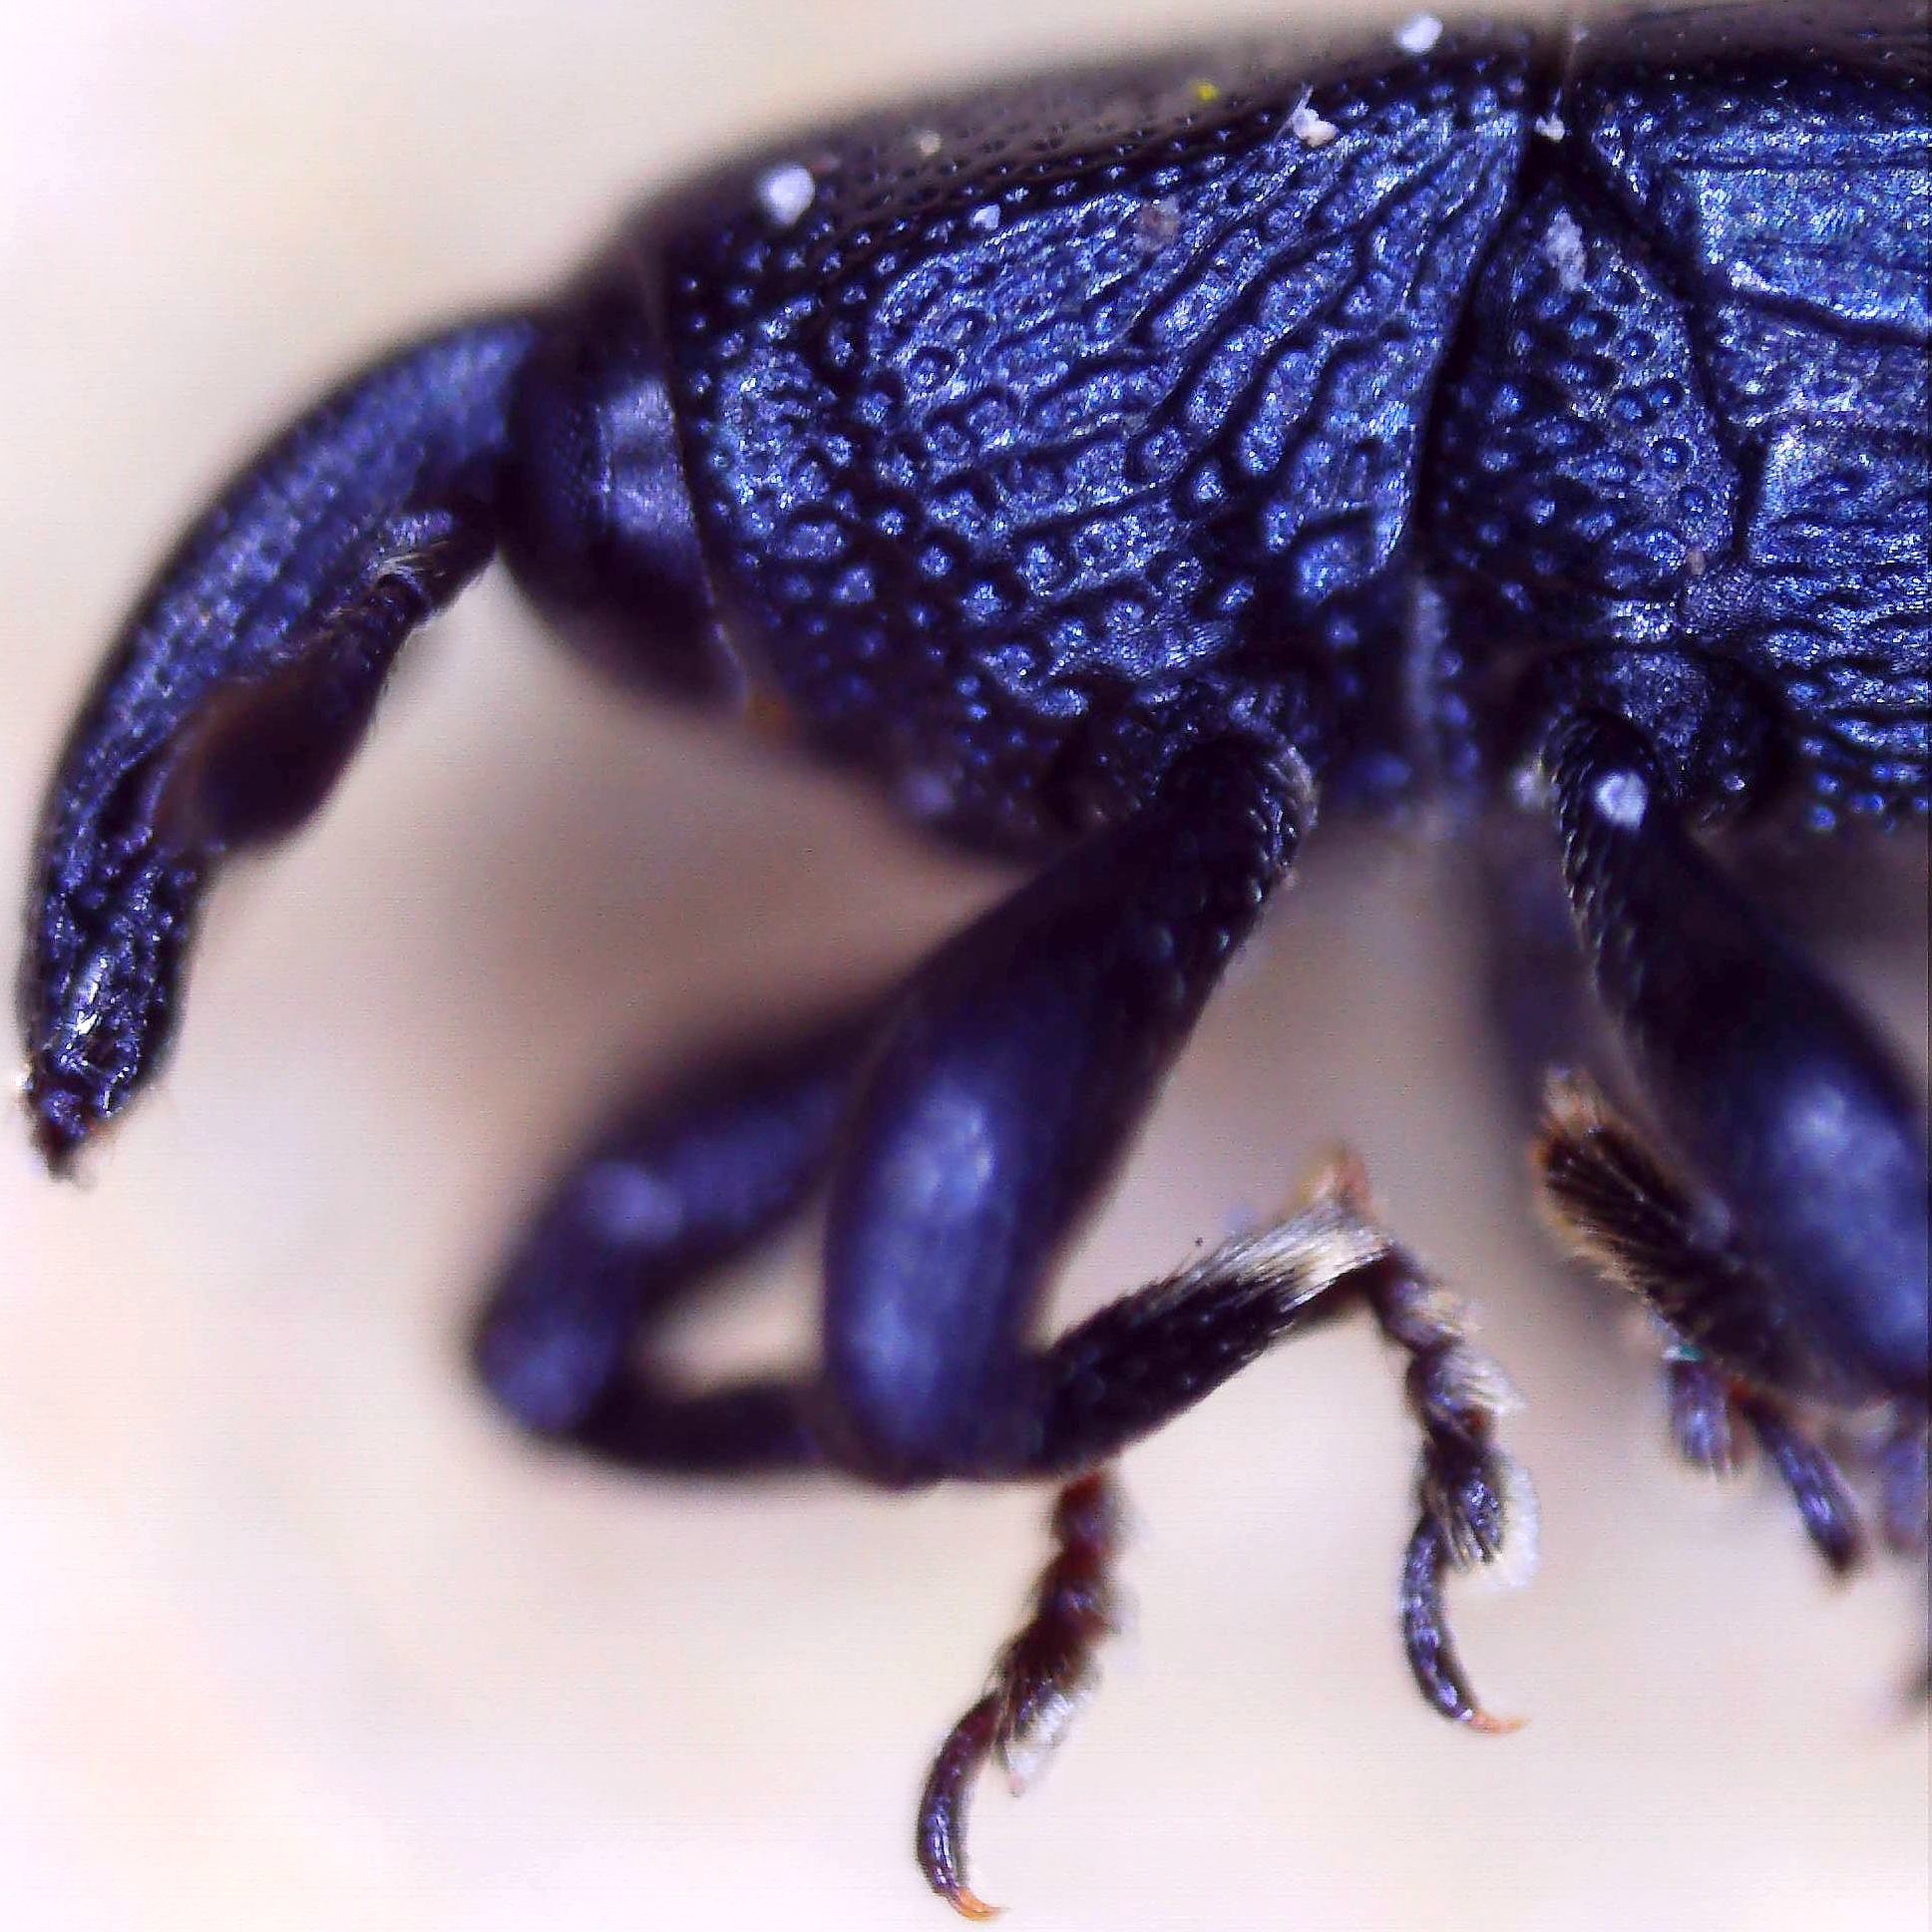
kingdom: Animalia
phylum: Arthropoda
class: Insecta
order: Coleoptera
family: Curculionidae
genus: Aulacobaris
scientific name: Aulacobaris lepidii
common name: Cress tooth weevil
